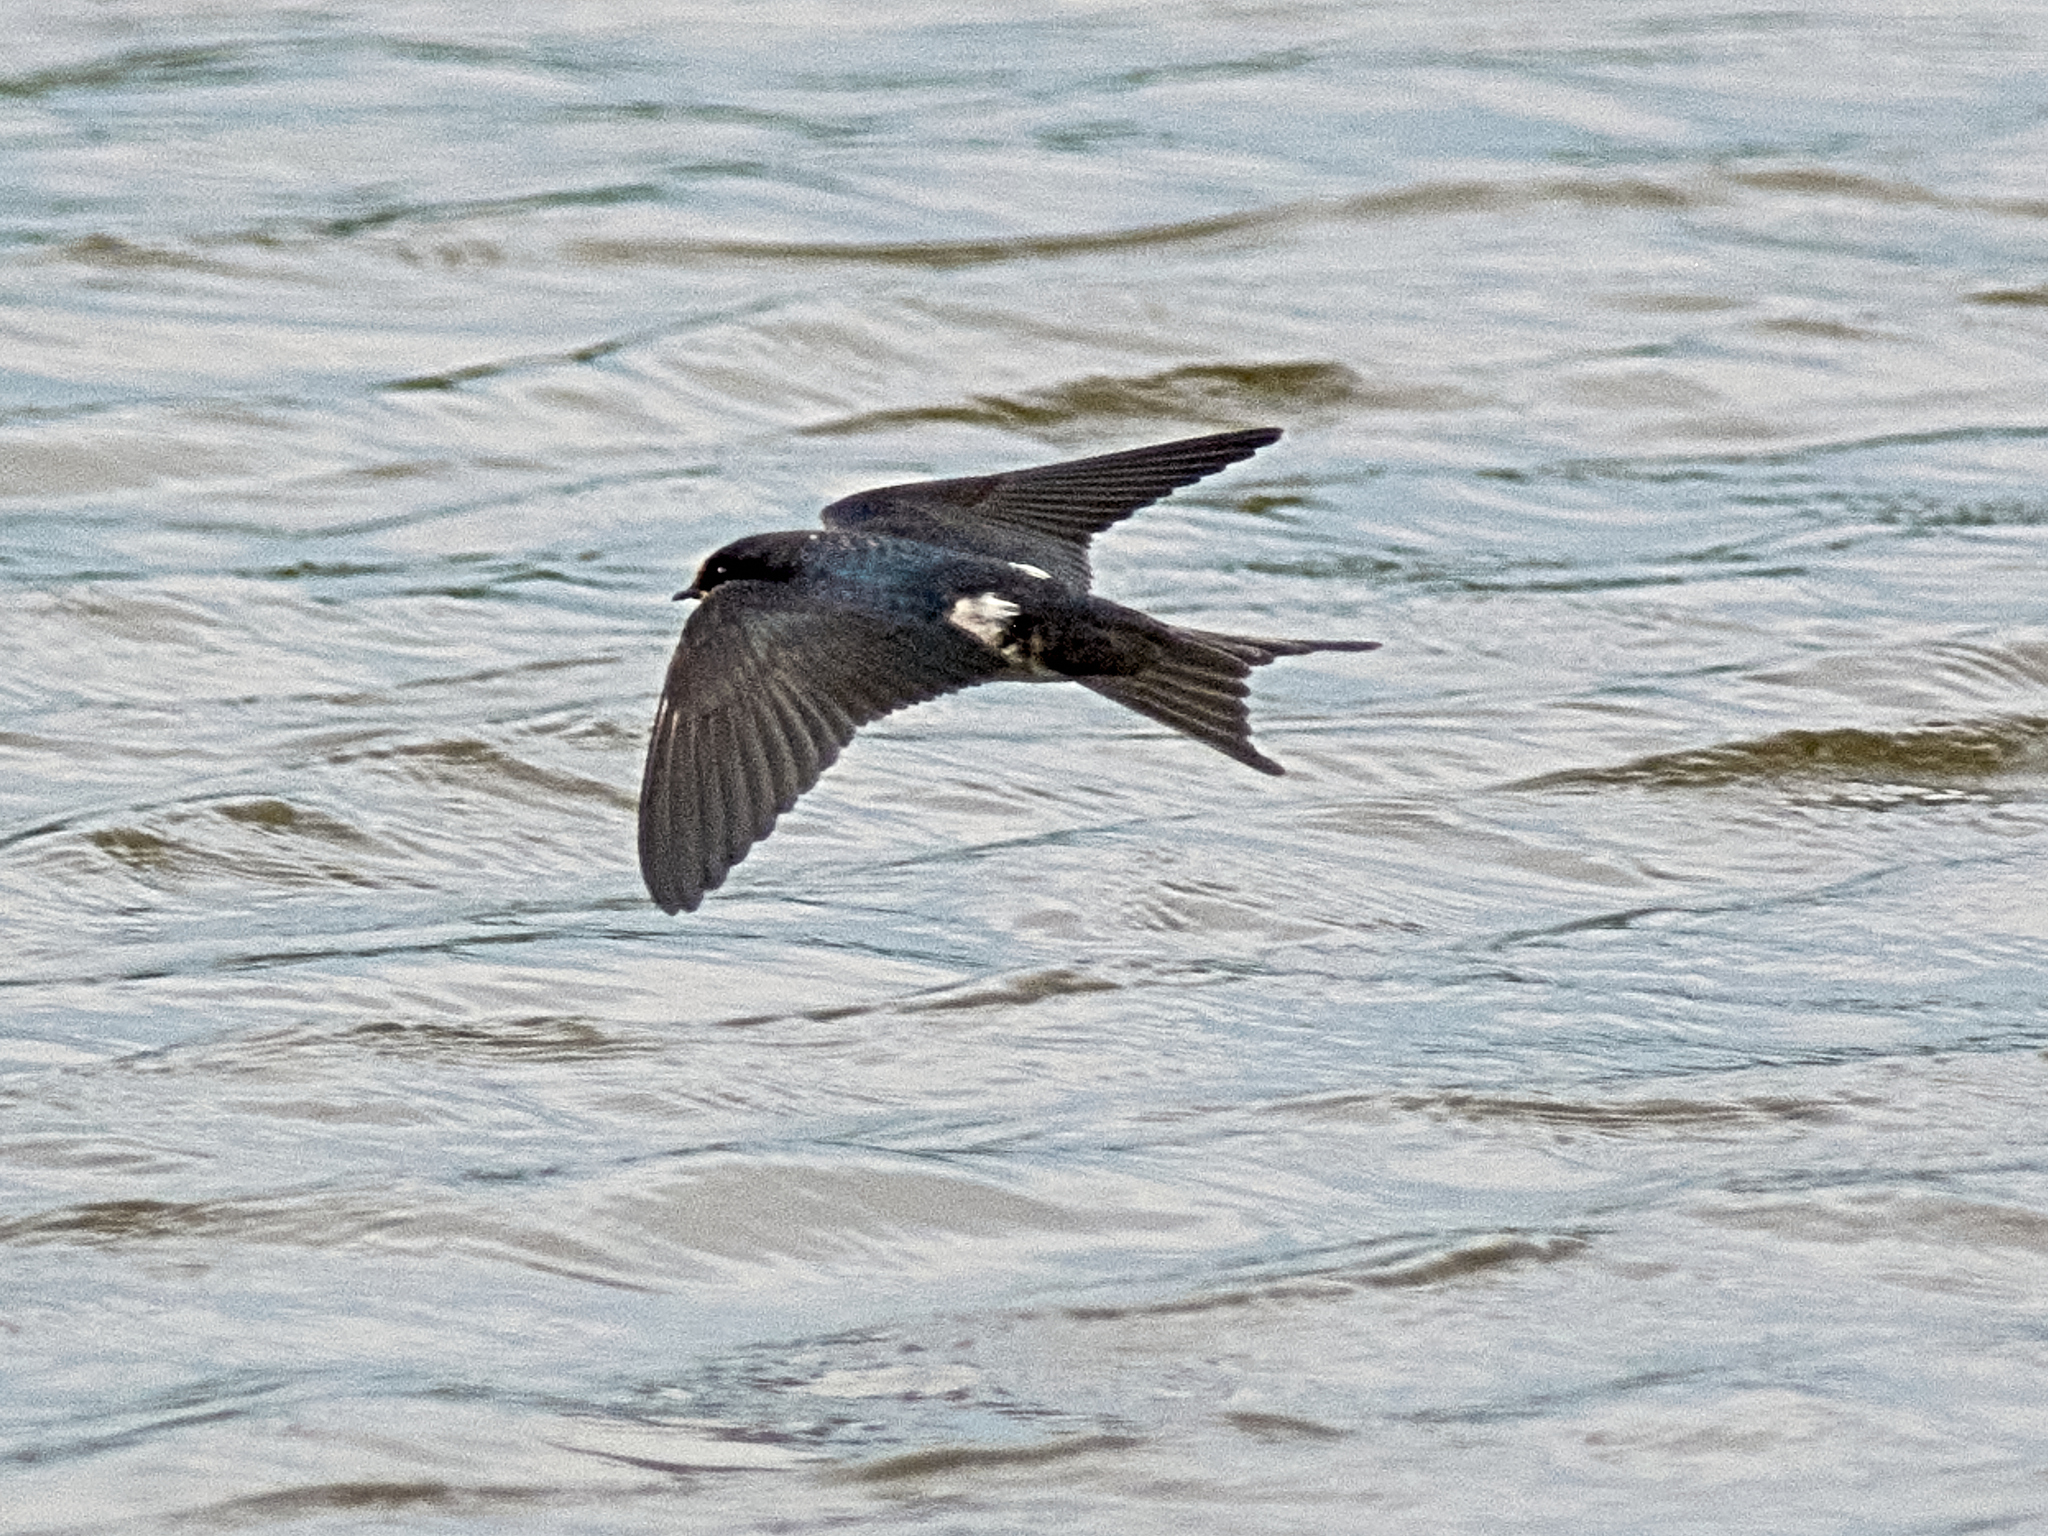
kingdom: Animalia
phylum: Chordata
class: Aves
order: Passeriformes
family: Hirundinidae
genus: Hirundo
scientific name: Hirundo rustica
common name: Barn swallow
